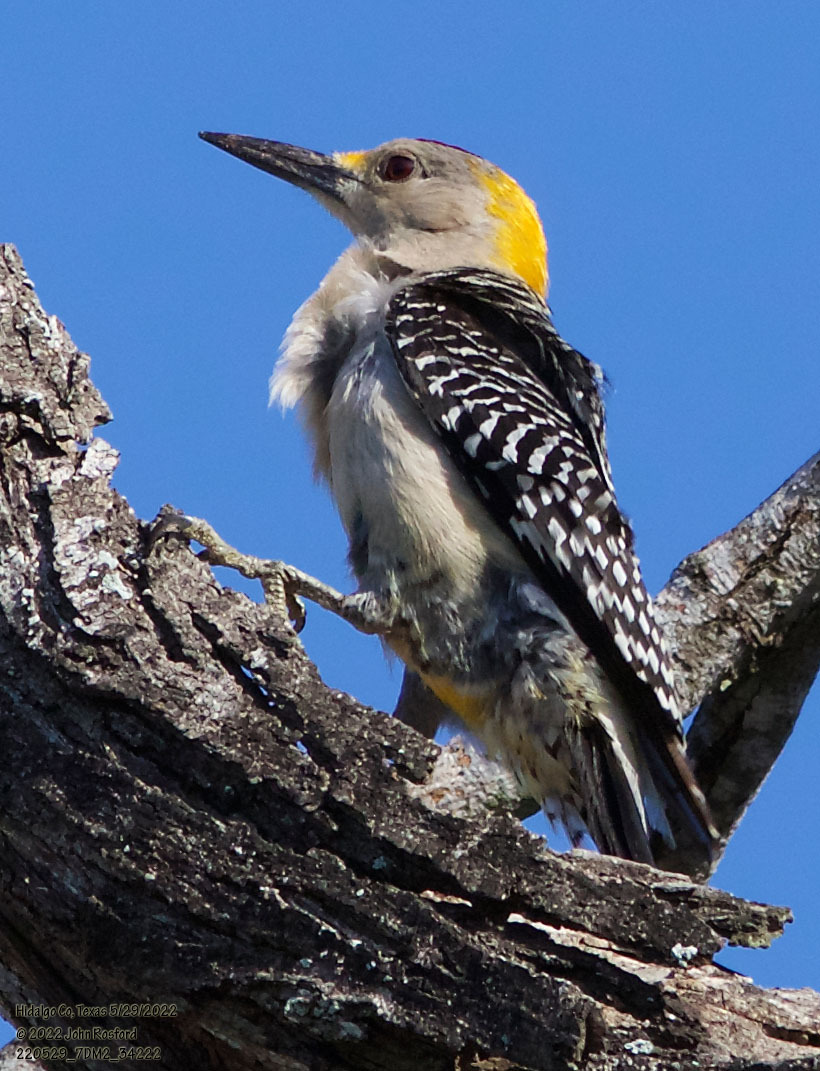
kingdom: Animalia
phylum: Chordata
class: Aves
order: Piciformes
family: Picidae
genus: Melanerpes
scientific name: Melanerpes aurifrons
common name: Golden-fronted woodpecker
